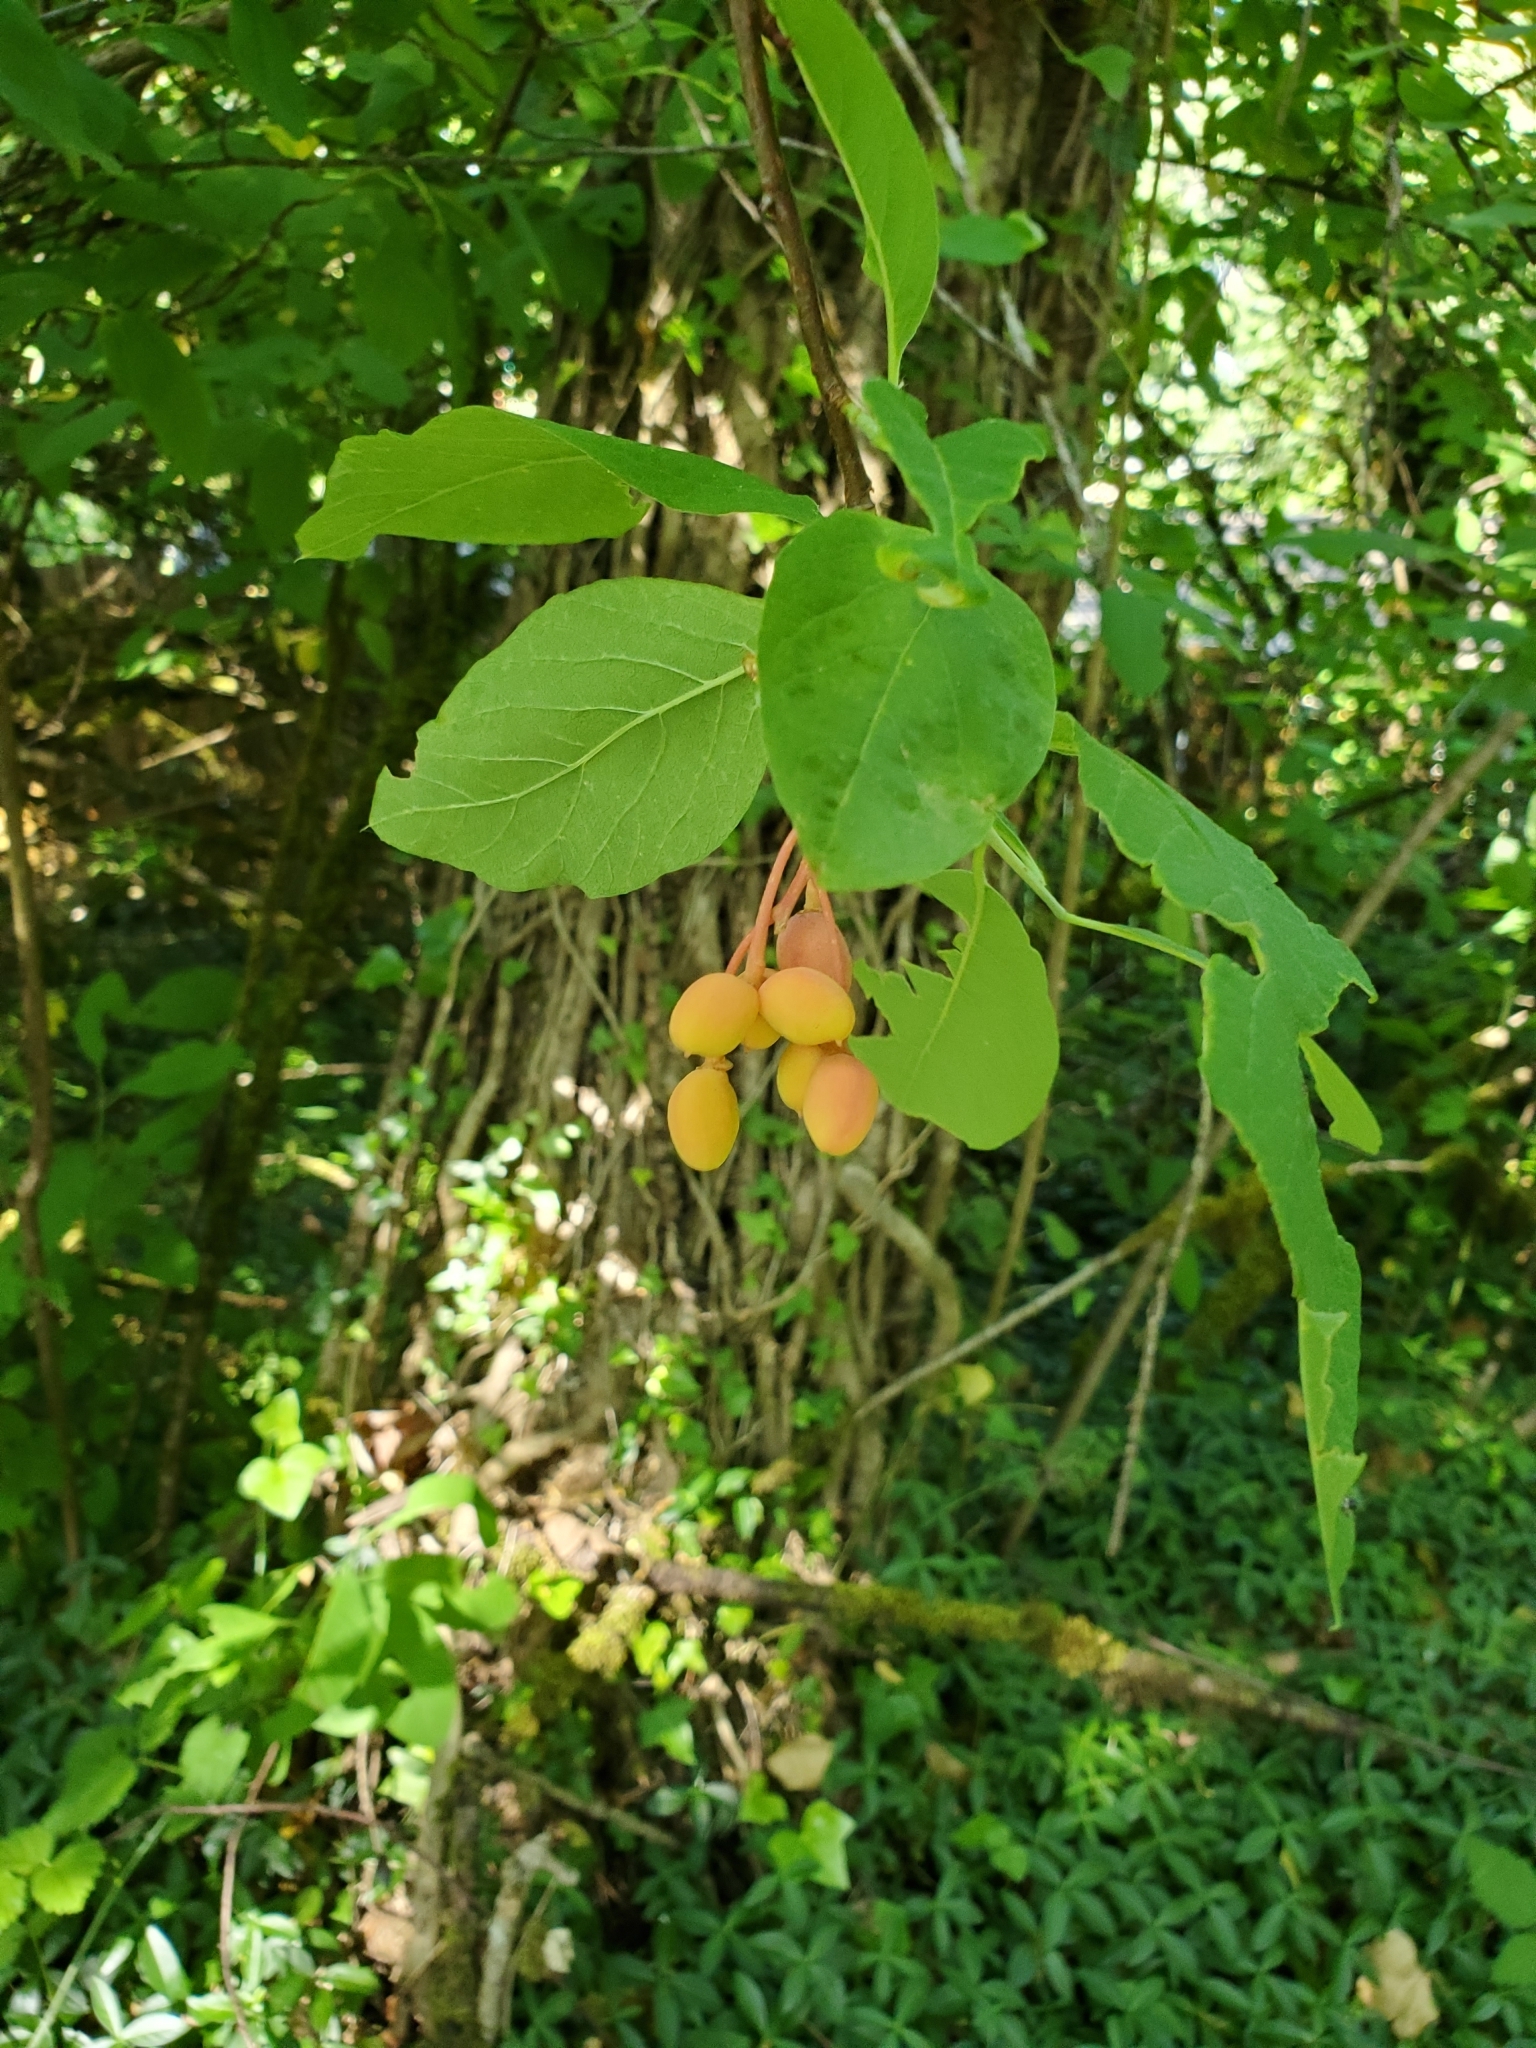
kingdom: Plantae
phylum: Tracheophyta
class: Magnoliopsida
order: Rosales
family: Rosaceae
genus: Oemleria
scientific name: Oemleria cerasiformis
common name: Osoberry
